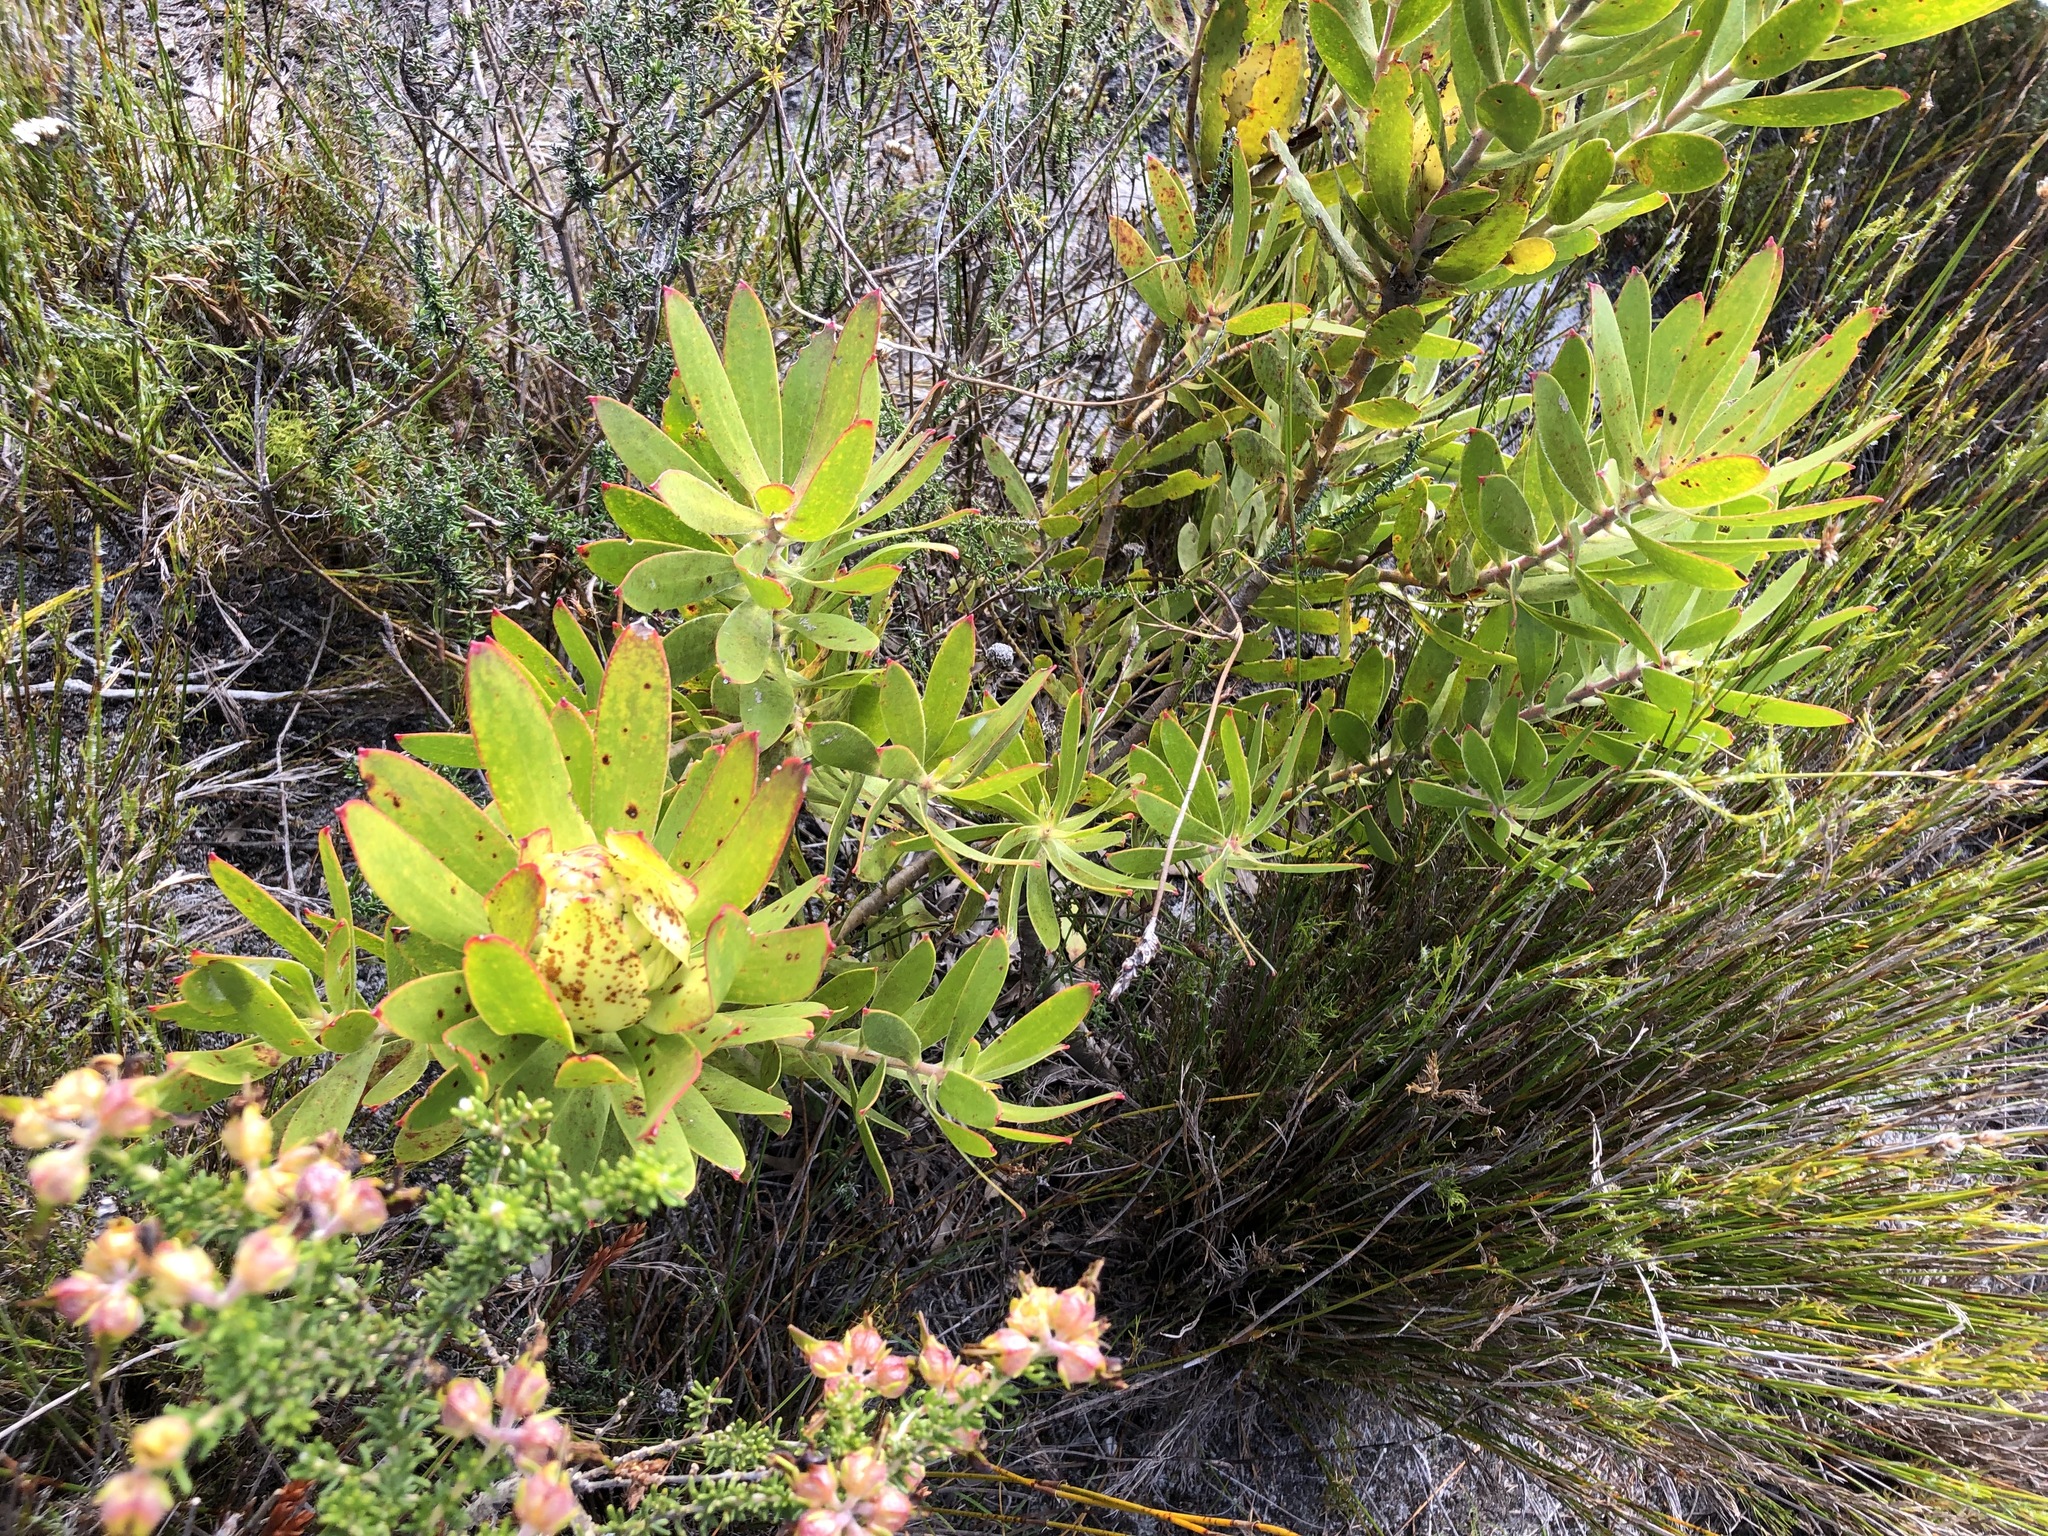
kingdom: Plantae
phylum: Tracheophyta
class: Magnoliopsida
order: Proteales
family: Proteaceae
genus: Leucadendron
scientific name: Leucadendron
